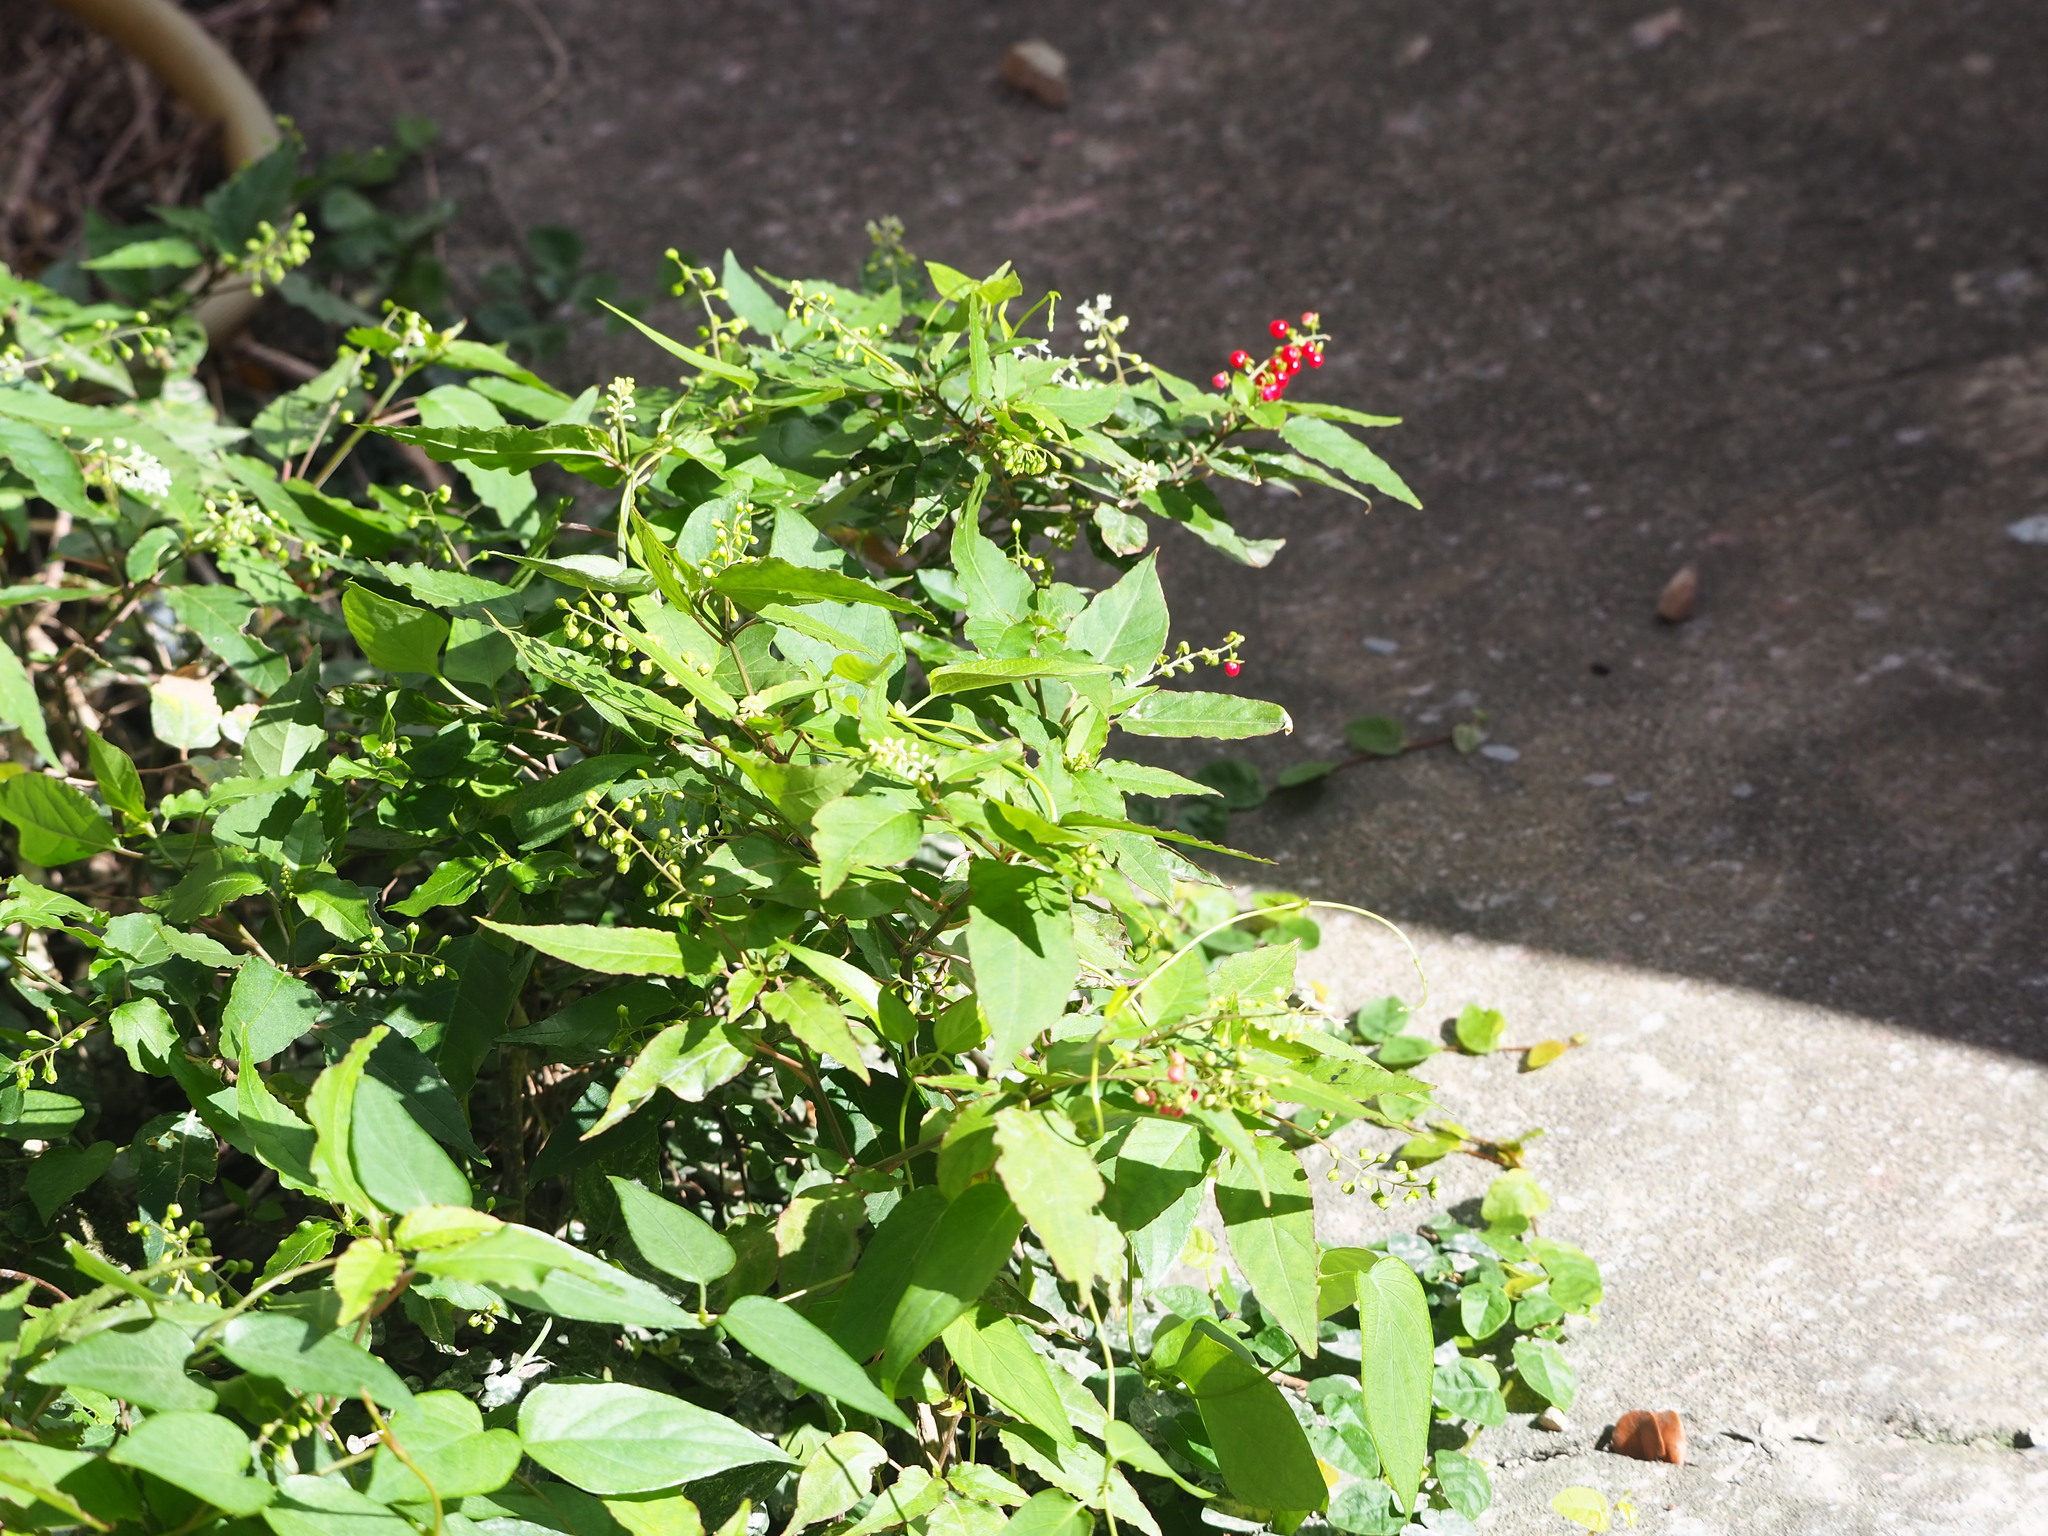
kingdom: Plantae
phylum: Tracheophyta
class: Magnoliopsida
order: Caryophyllales
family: Phytolaccaceae
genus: Rivina
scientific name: Rivina humilis
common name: Rougeplant
